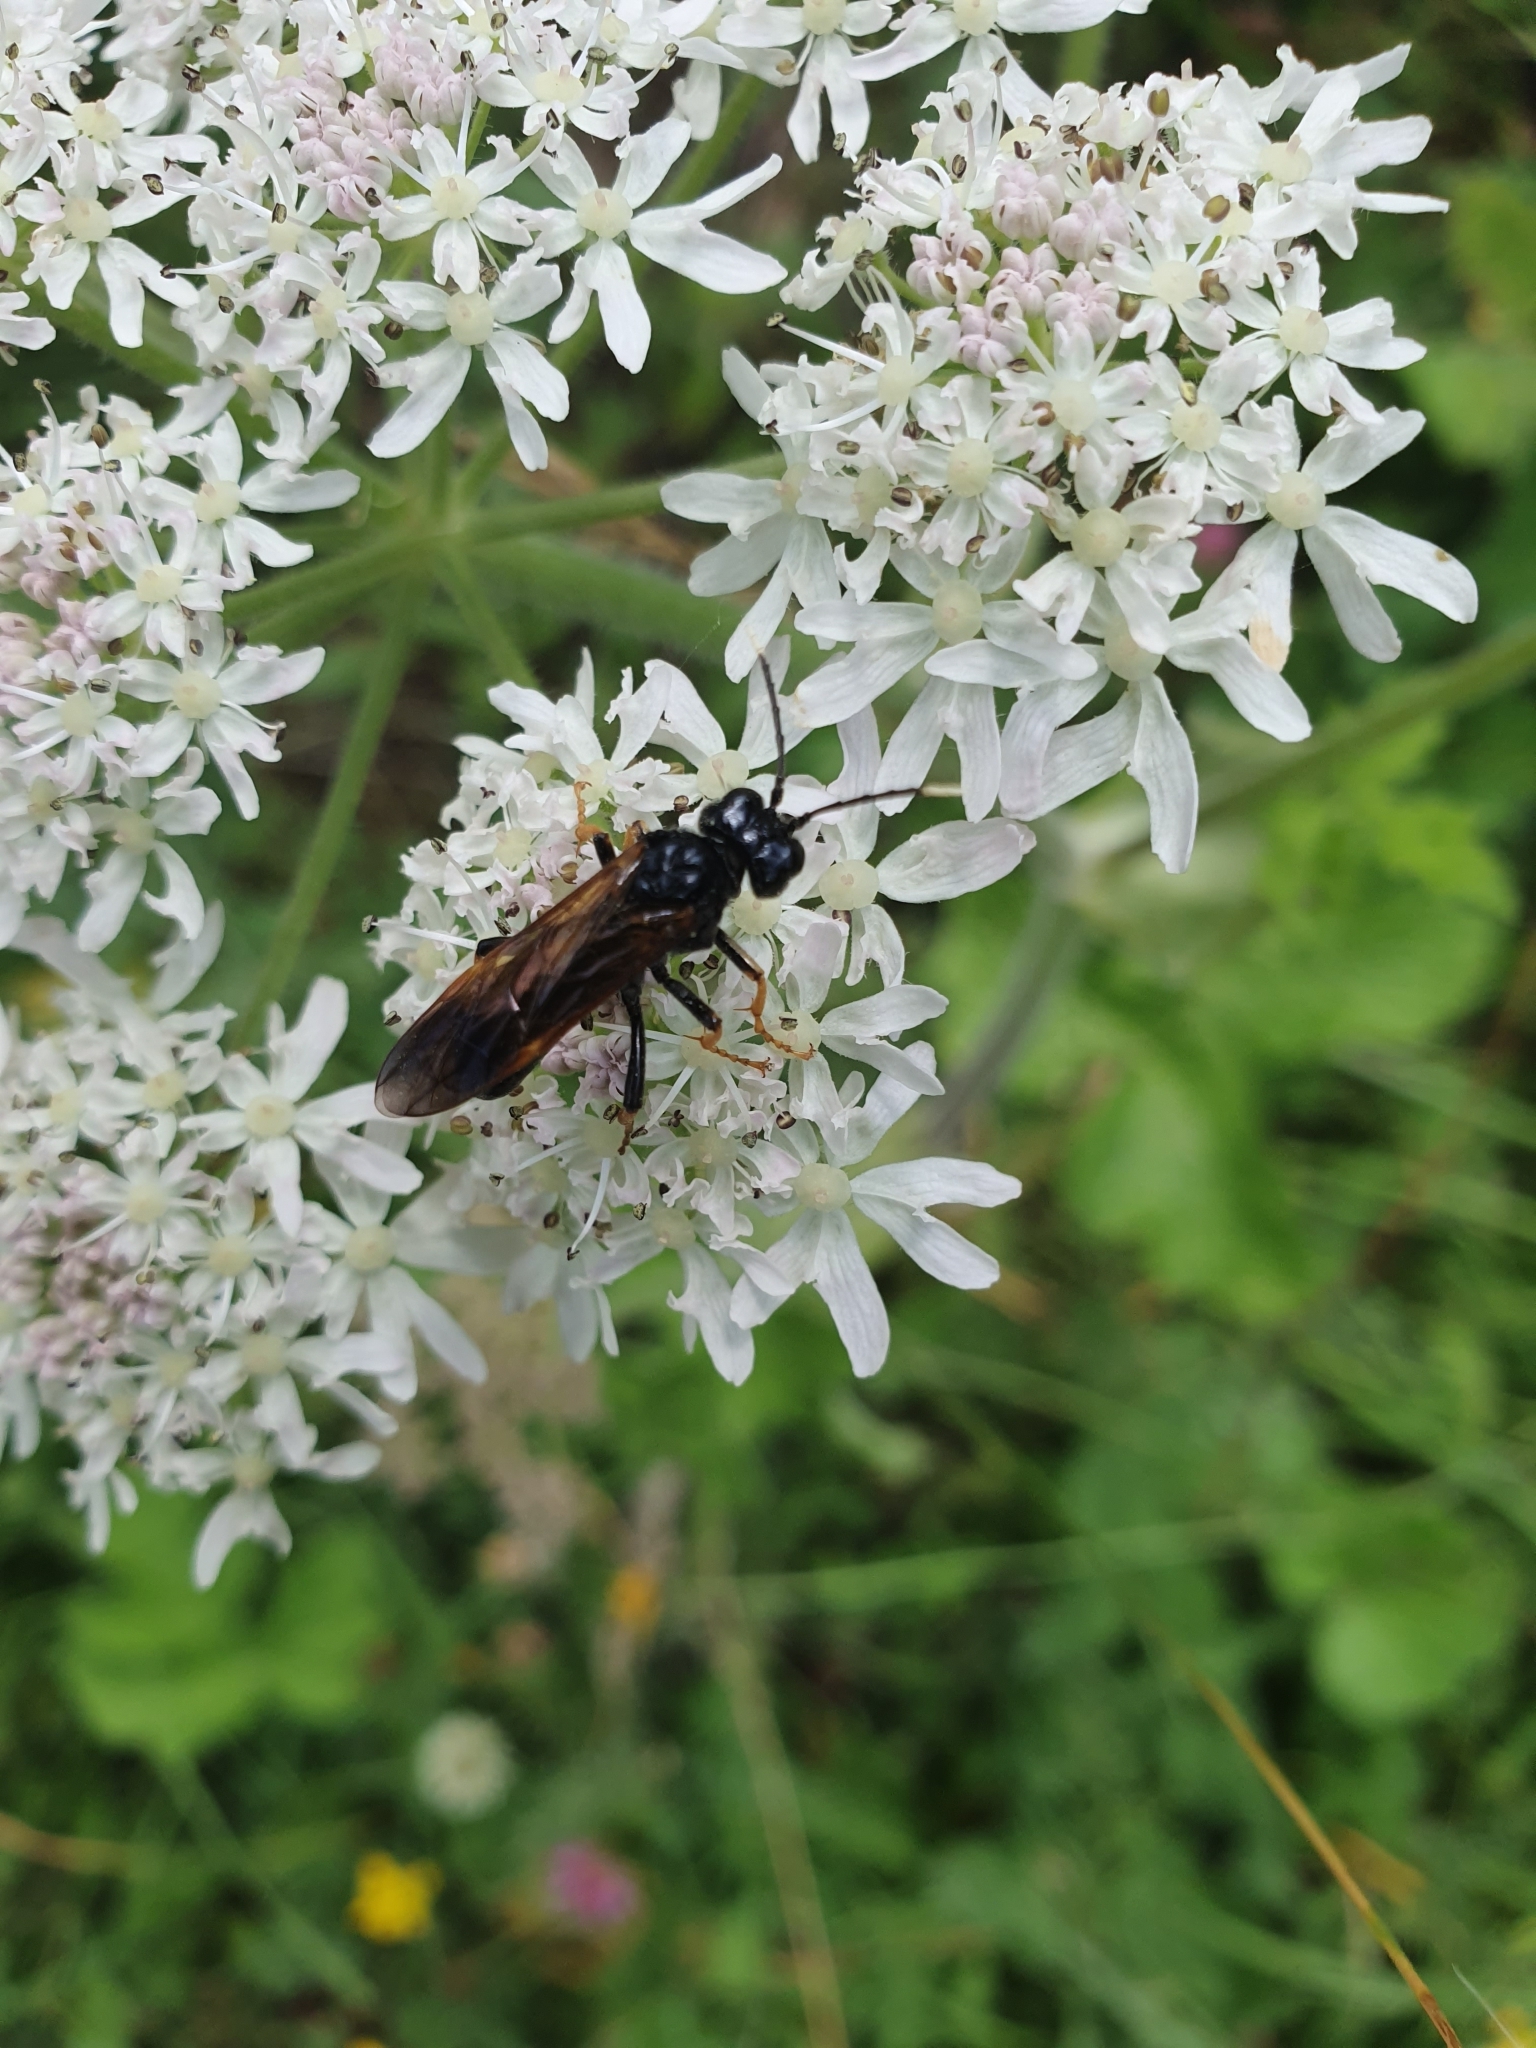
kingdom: Animalia
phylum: Arthropoda
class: Insecta
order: Hymenoptera
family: Tenthredinidae
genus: Tenthredo
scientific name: Tenthredo crassa
